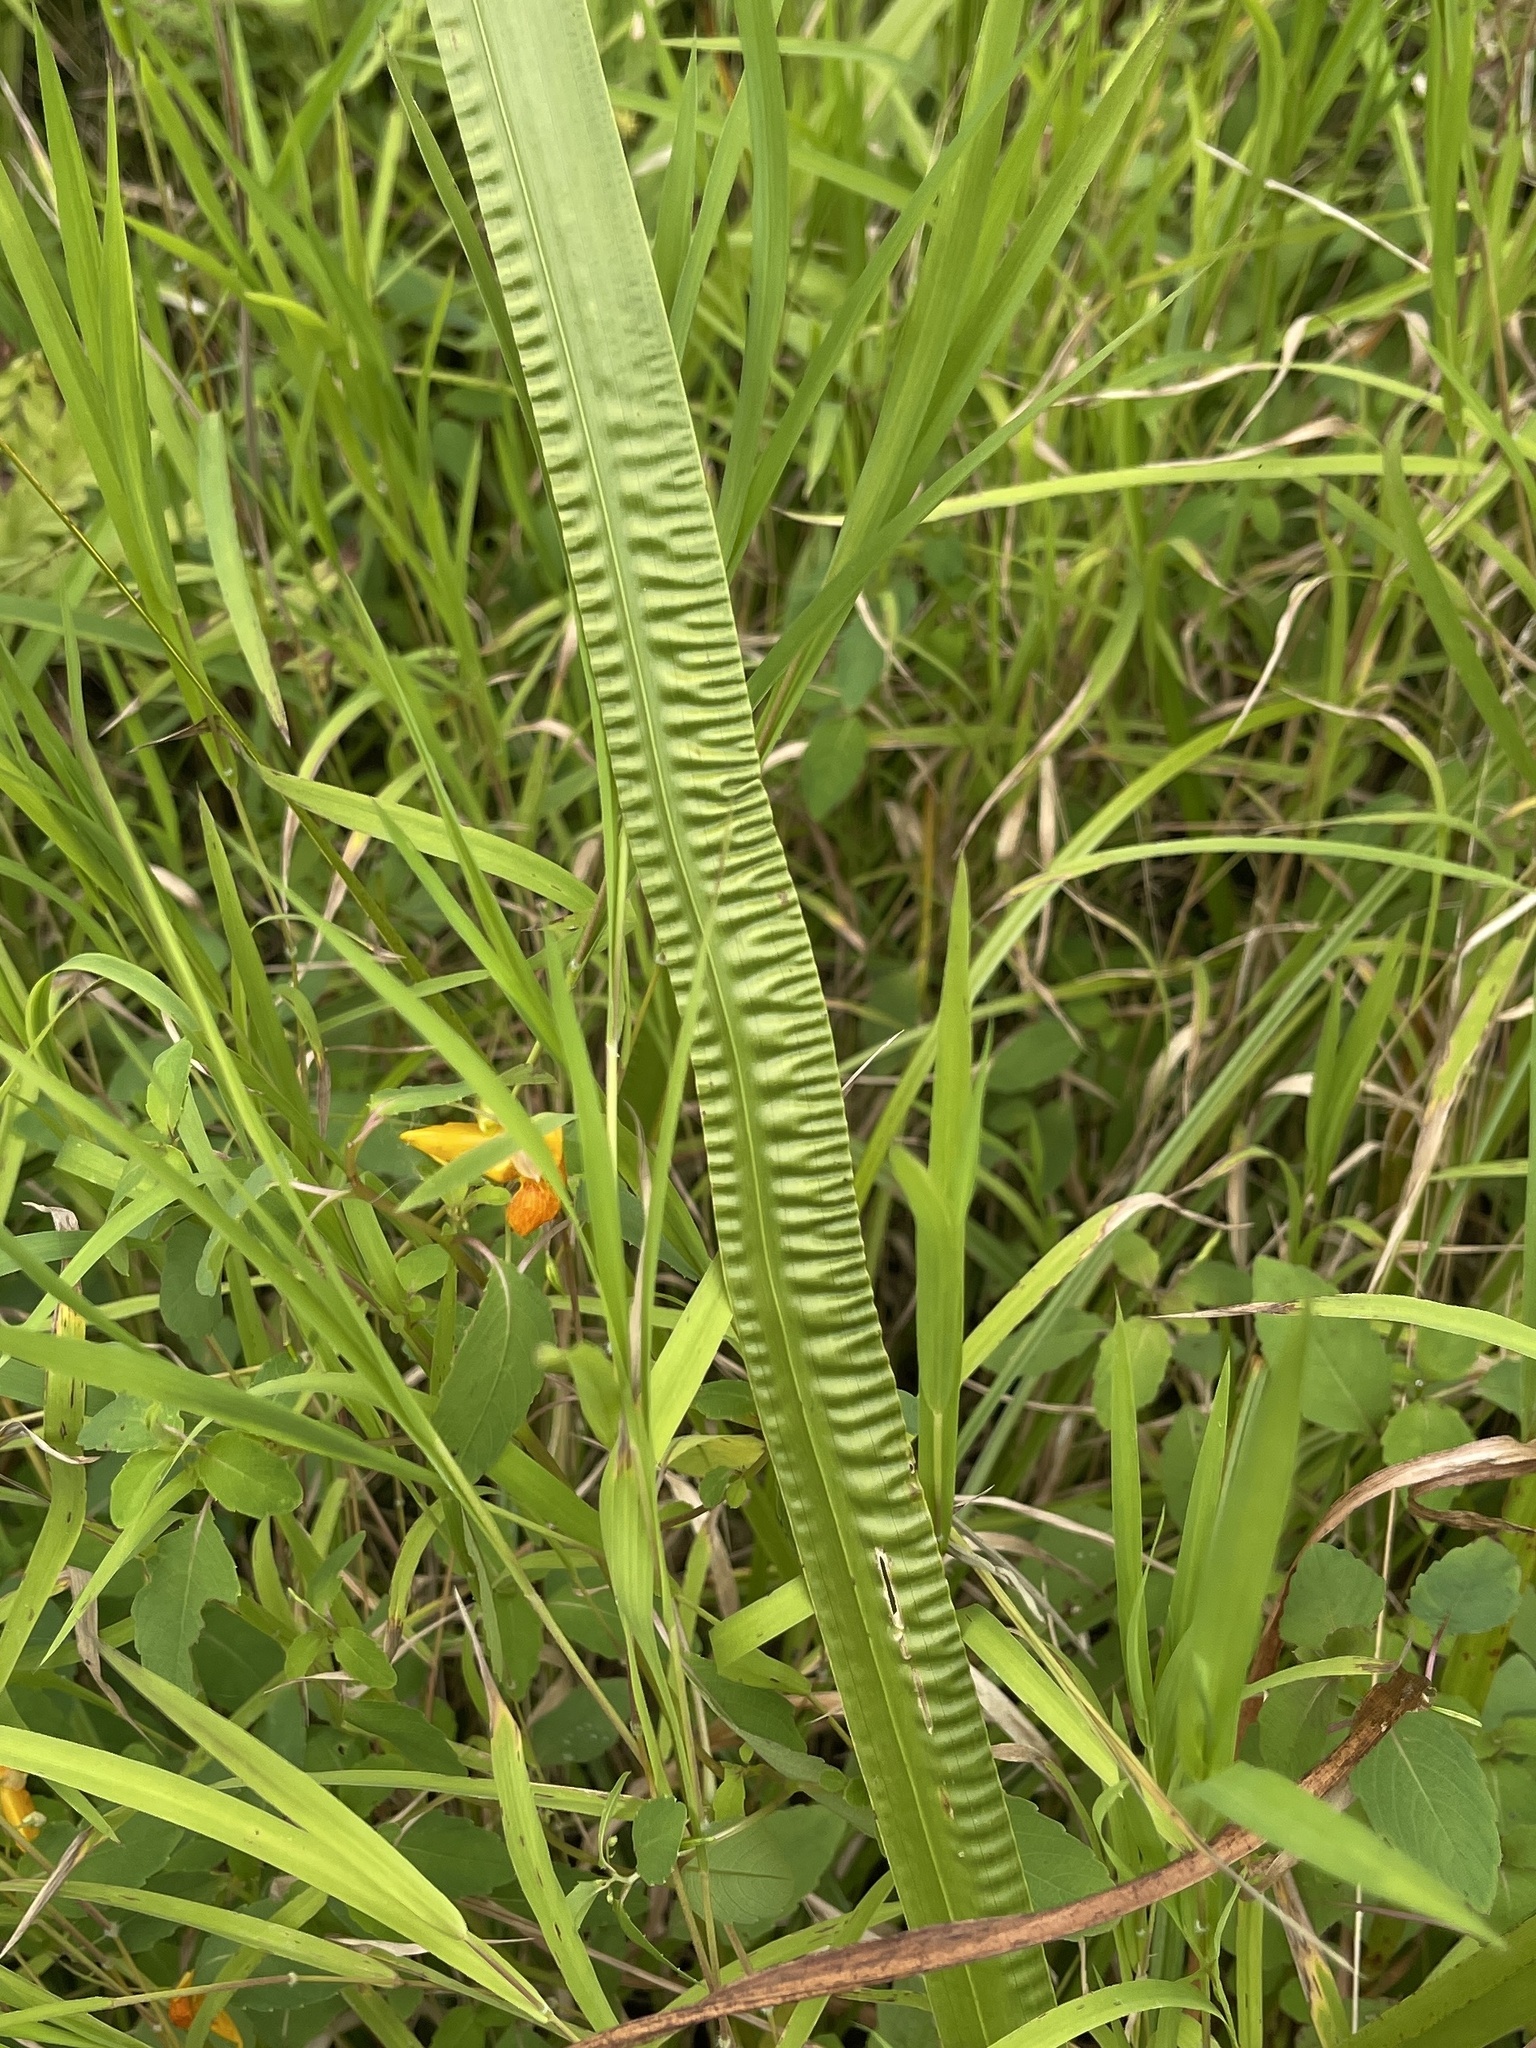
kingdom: Plantae
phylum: Tracheophyta
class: Liliopsida
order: Acorales
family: Acoraceae
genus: Acorus
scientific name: Acorus calamus
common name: Sweet-flag
